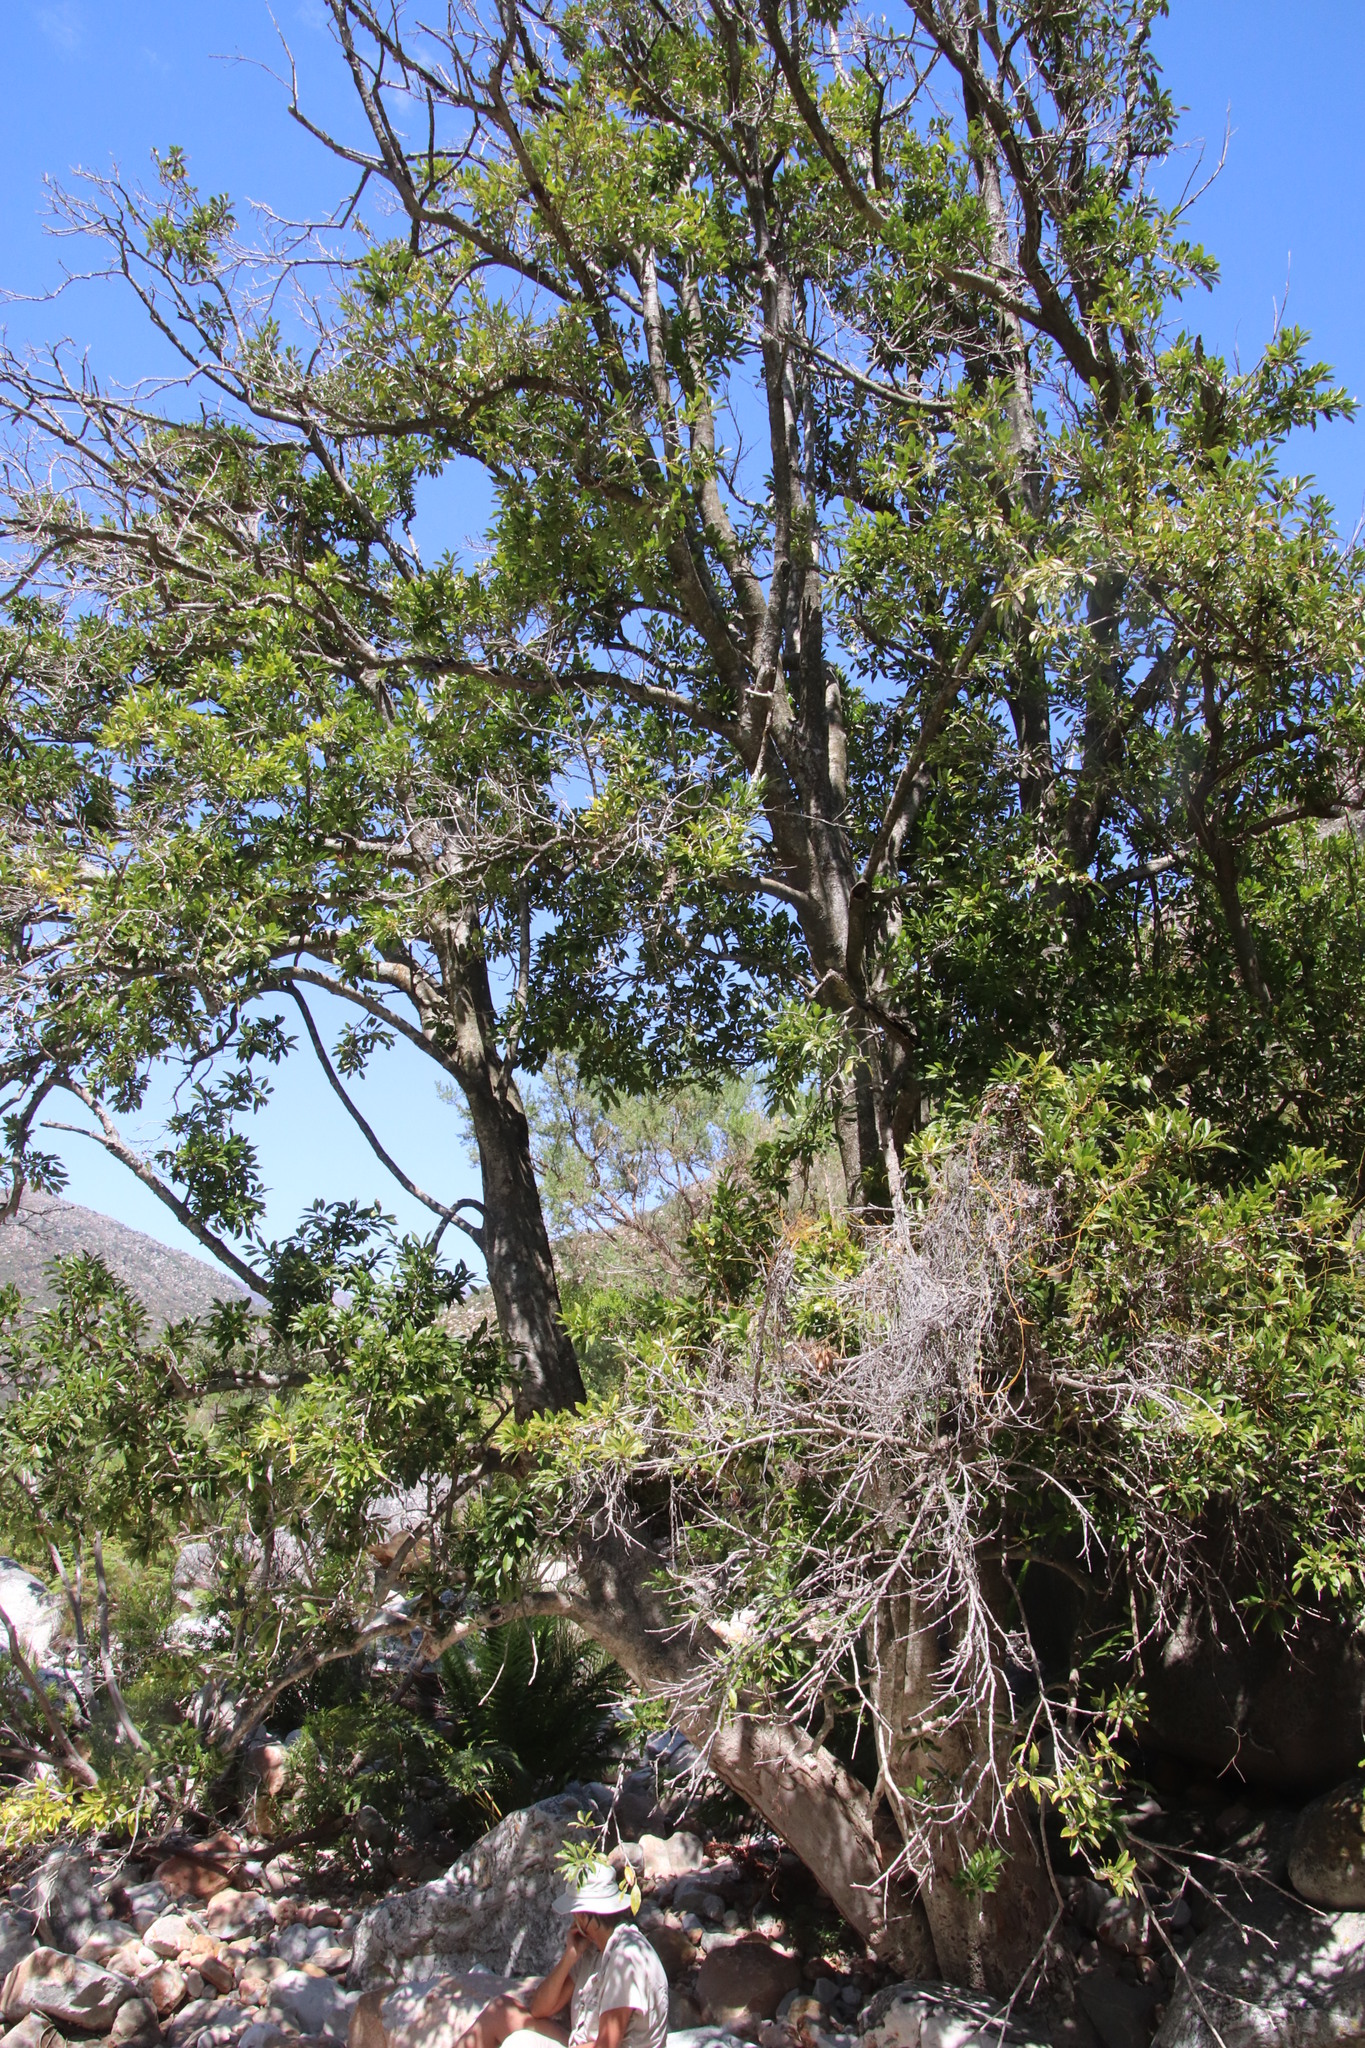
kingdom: Plantae
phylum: Tracheophyta
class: Magnoliopsida
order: Aquifoliales
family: Aquifoliaceae
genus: Ilex
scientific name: Ilex mitis
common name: African holly
